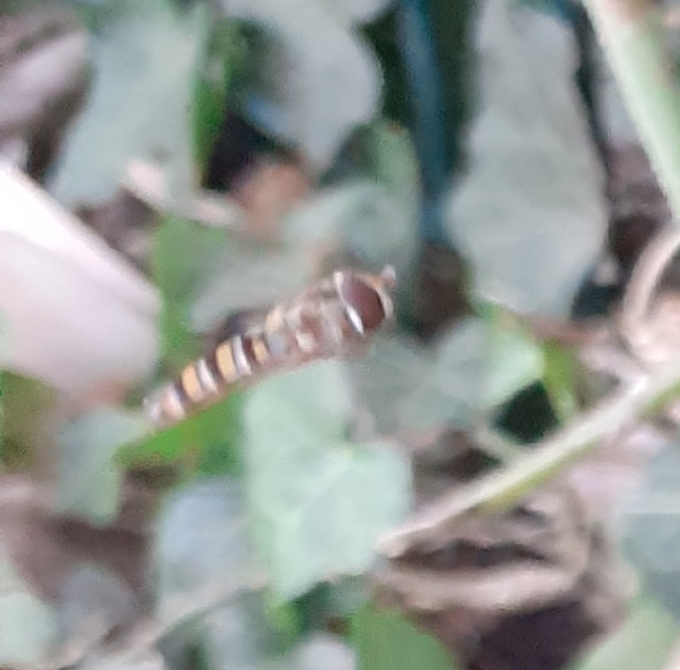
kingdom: Animalia
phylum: Arthropoda
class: Insecta
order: Diptera
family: Syrphidae
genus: Episyrphus
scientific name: Episyrphus balteatus
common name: Marmalade hoverfly
